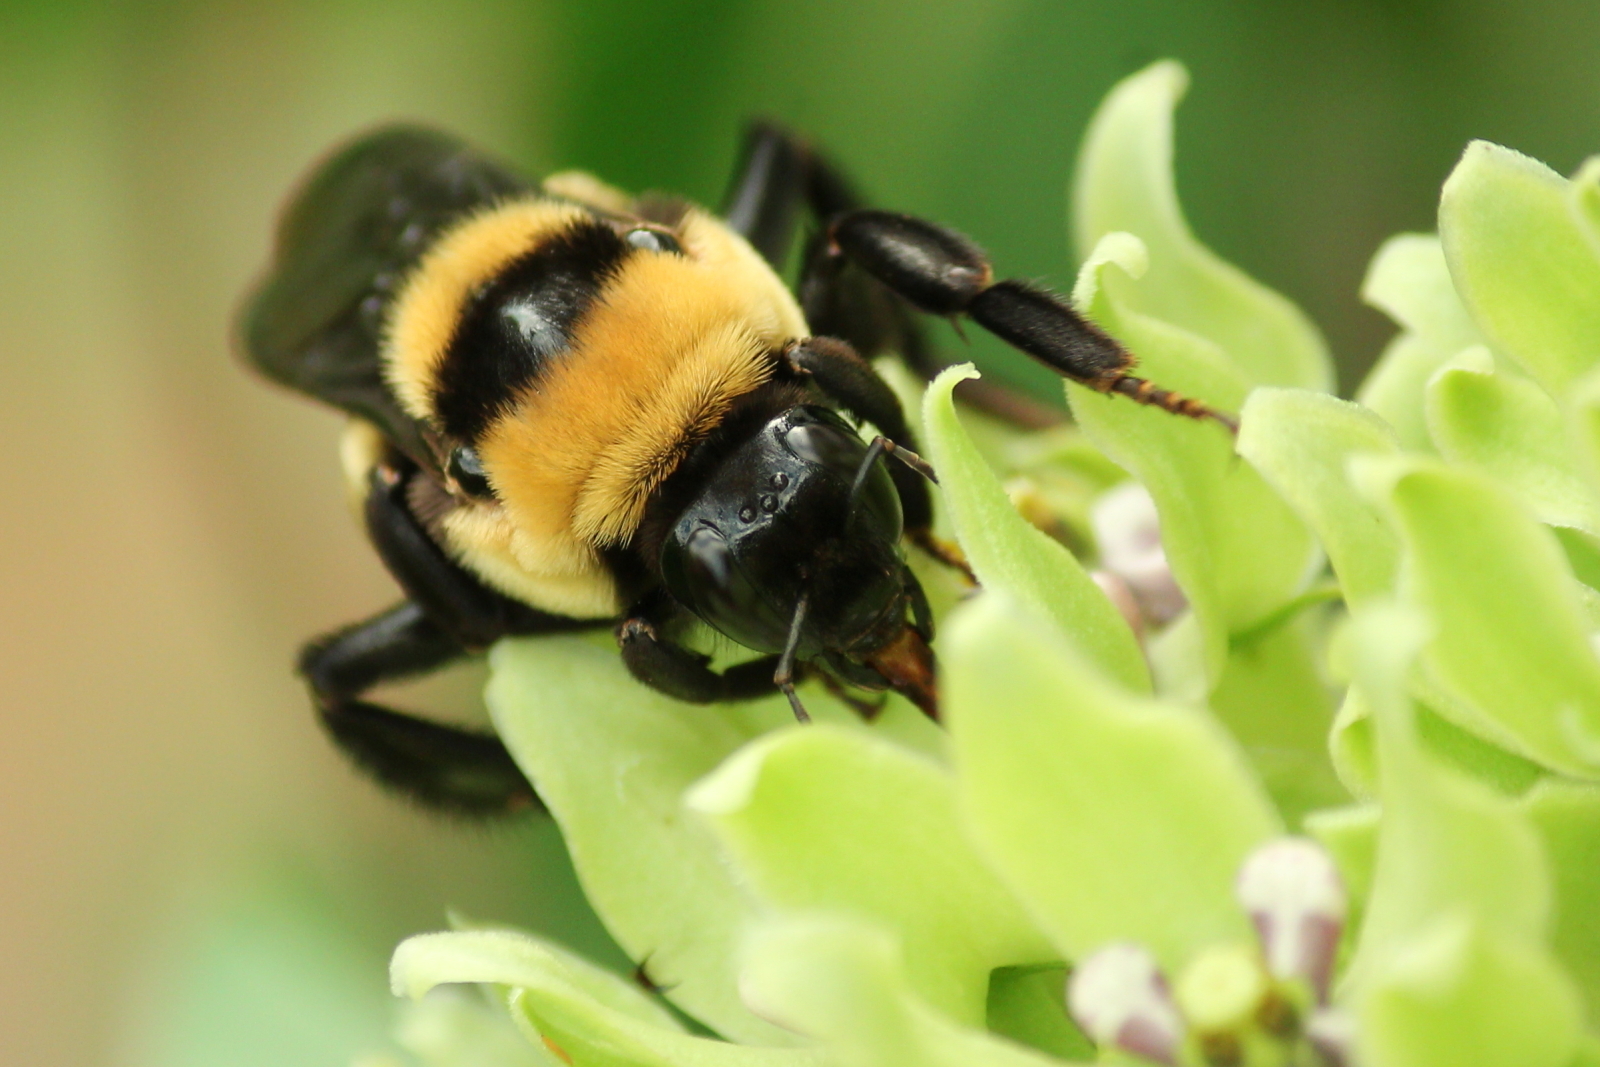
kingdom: Animalia
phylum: Arthropoda
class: Insecta
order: Hymenoptera
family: Apidae
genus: Bombus
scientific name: Bombus fraternus
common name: Southern plains bumble bee
